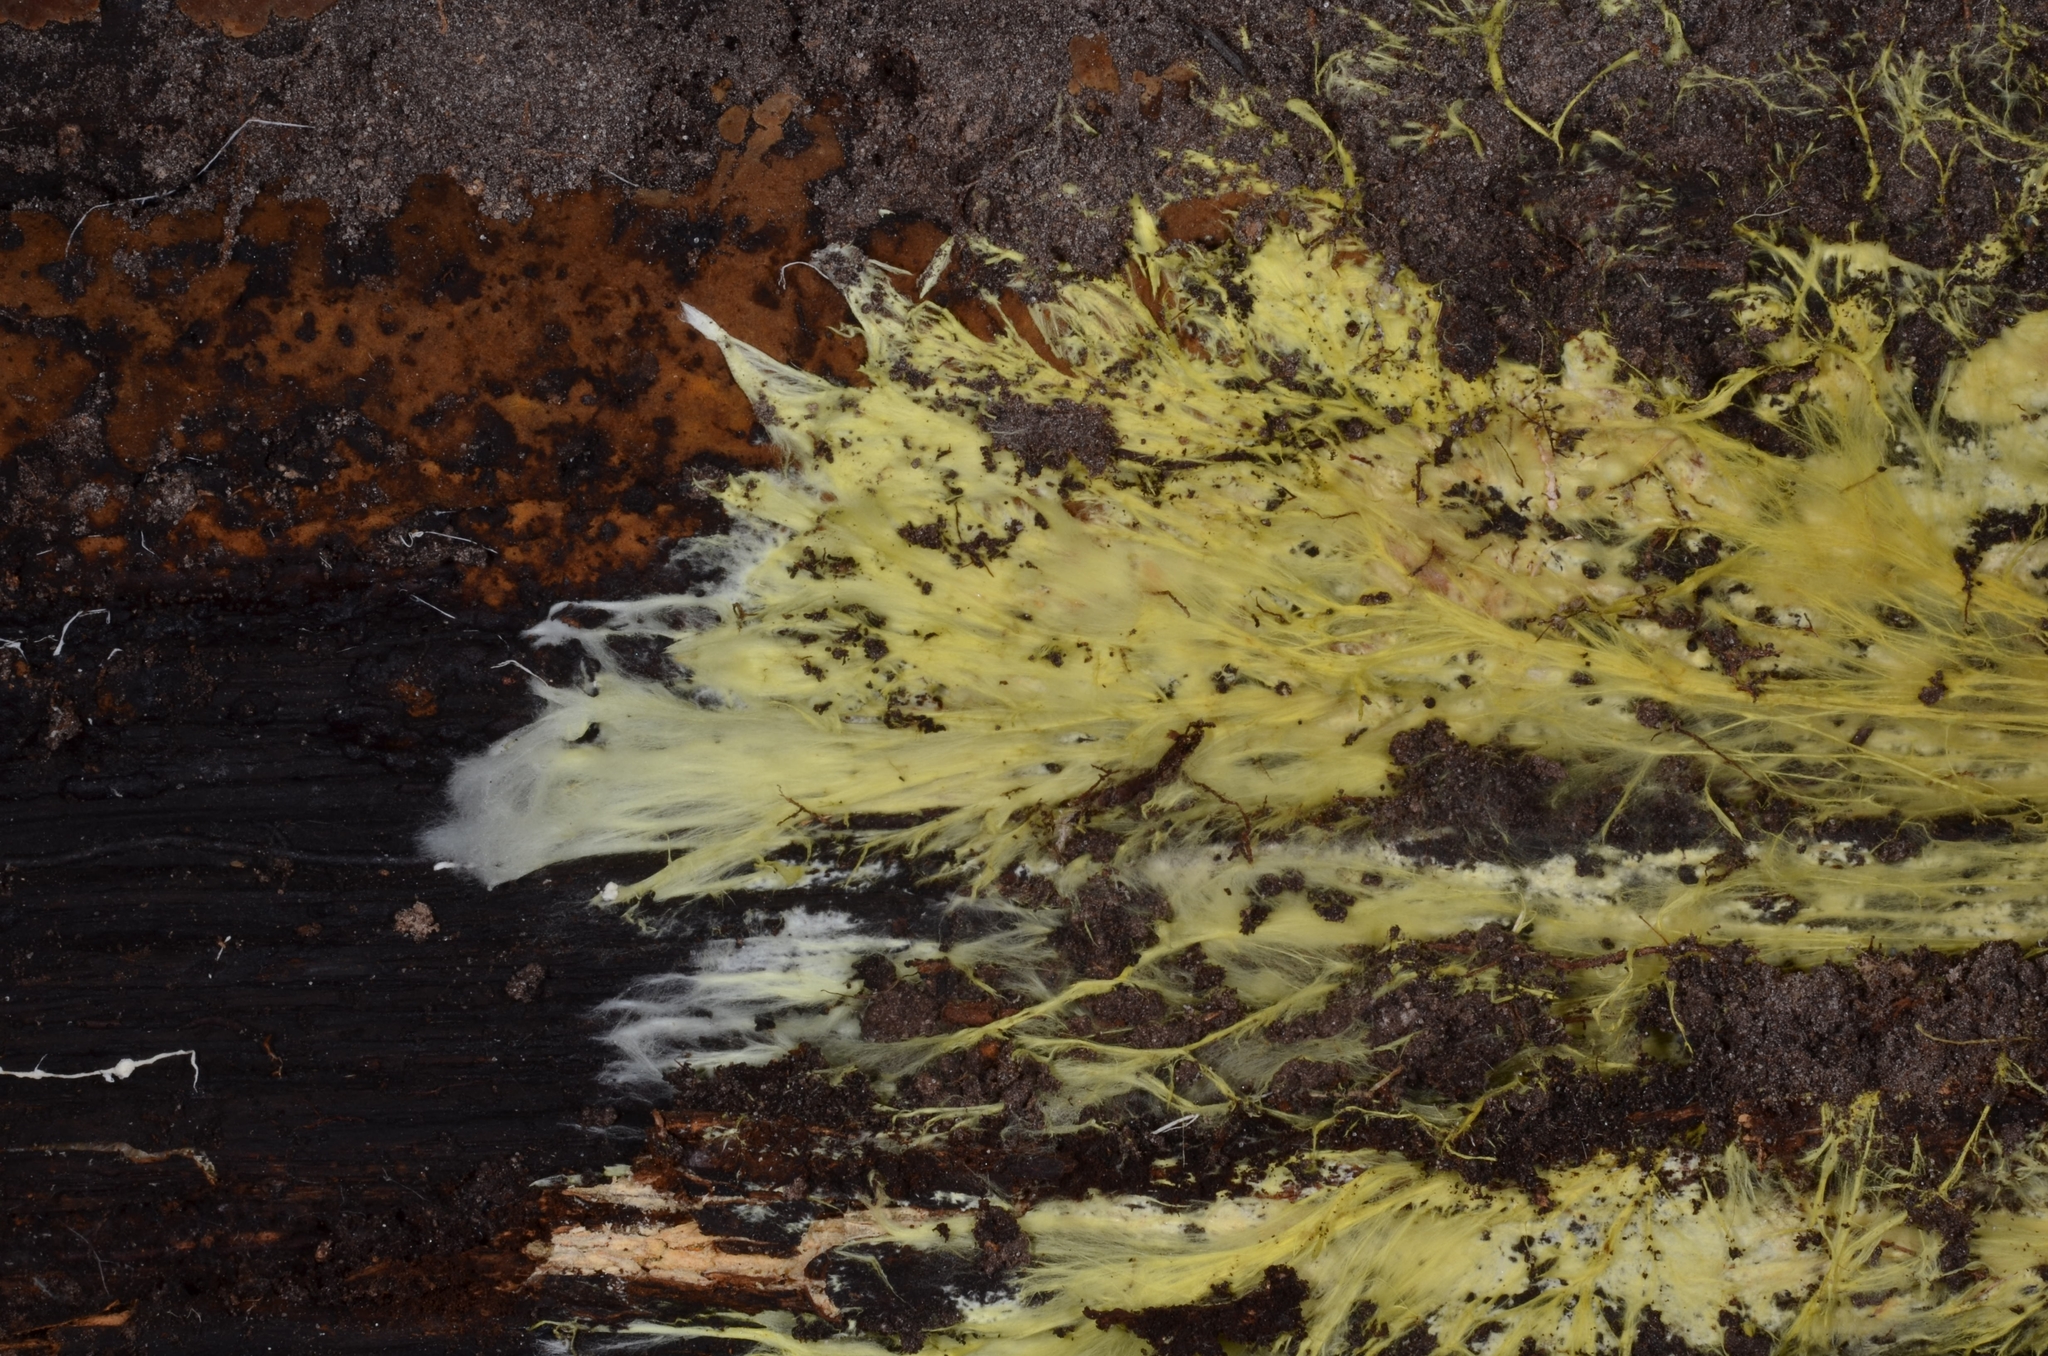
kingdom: Fungi
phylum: Basidiomycota
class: Agaricomycetes
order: Russulales
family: Xenasmataceae
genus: Xenasmatella
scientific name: Xenasmatella vaga
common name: Yellow cobweb
